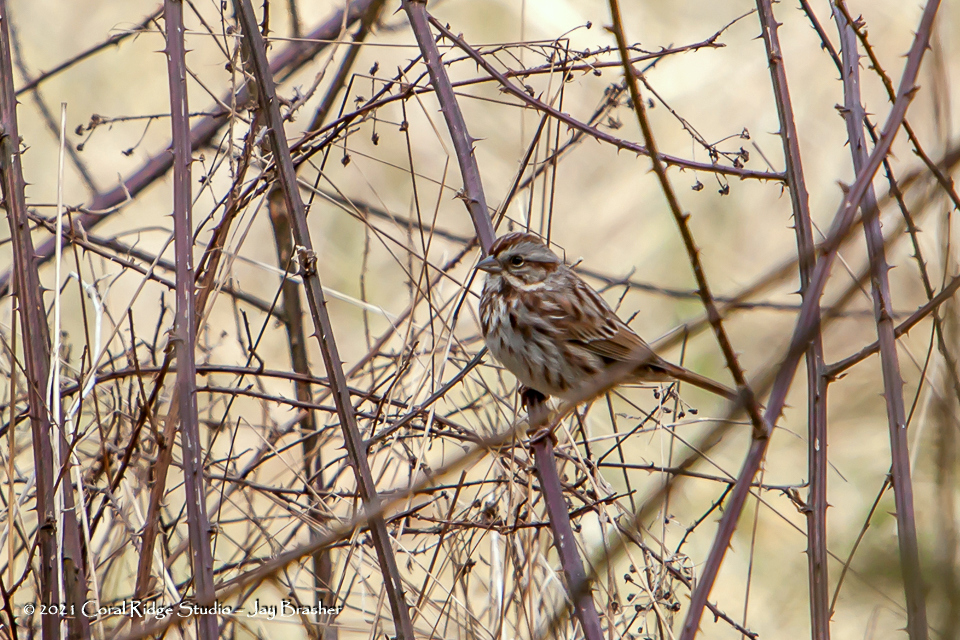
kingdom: Animalia
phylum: Chordata
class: Aves
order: Passeriformes
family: Passerellidae
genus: Melospiza
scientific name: Melospiza melodia
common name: Song sparrow
